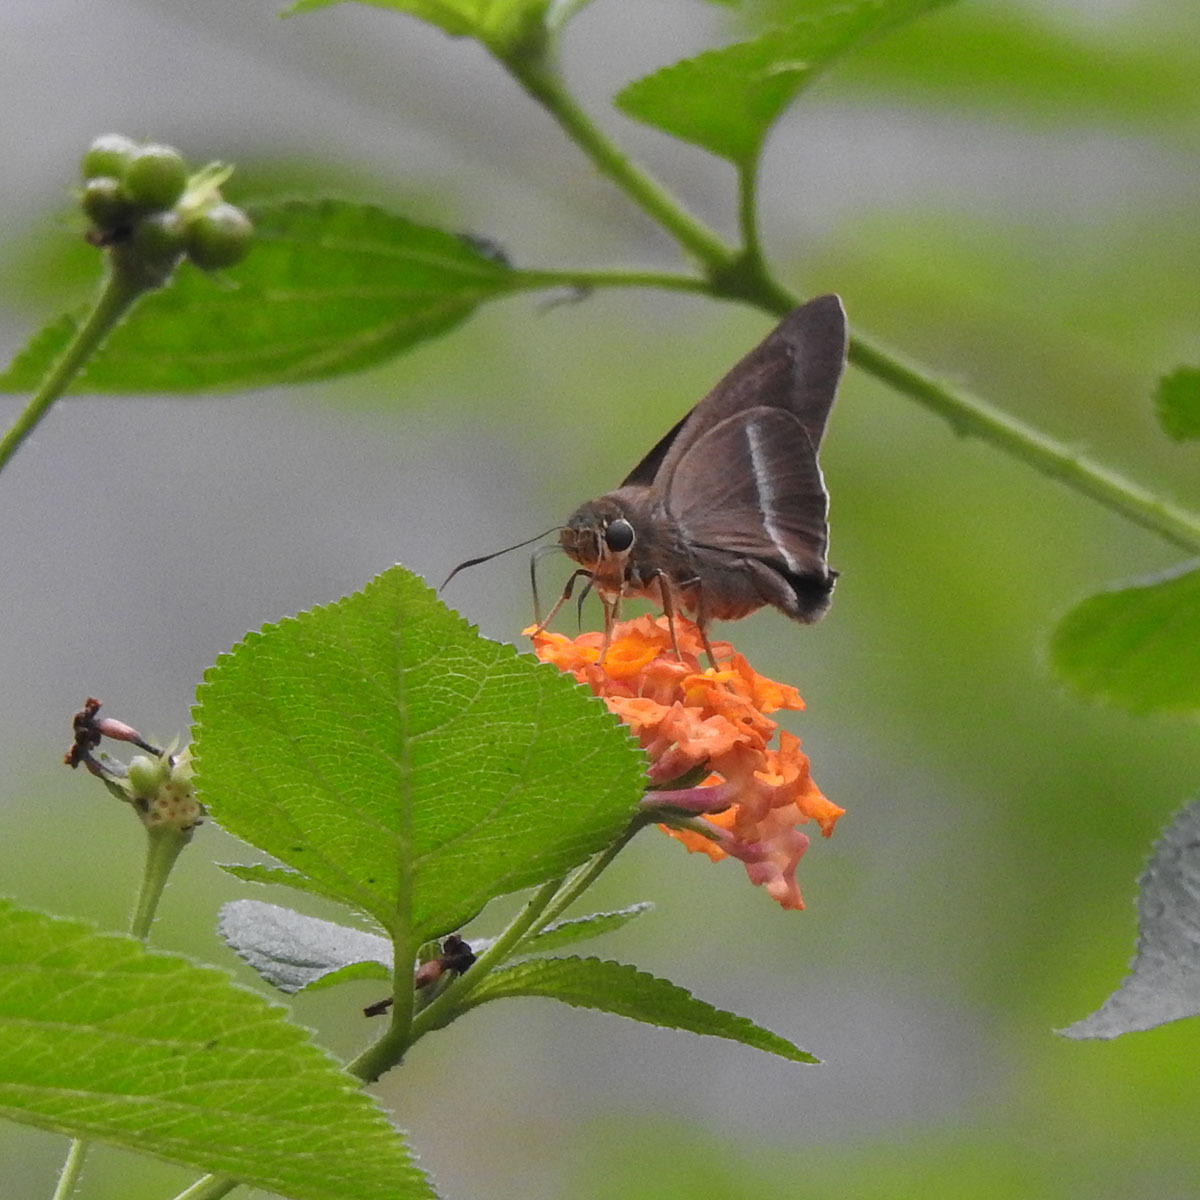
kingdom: Animalia
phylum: Arthropoda
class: Insecta
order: Lepidoptera
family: Hesperiidae
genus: Hasora
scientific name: Hasora chromus
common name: Common banded awl
